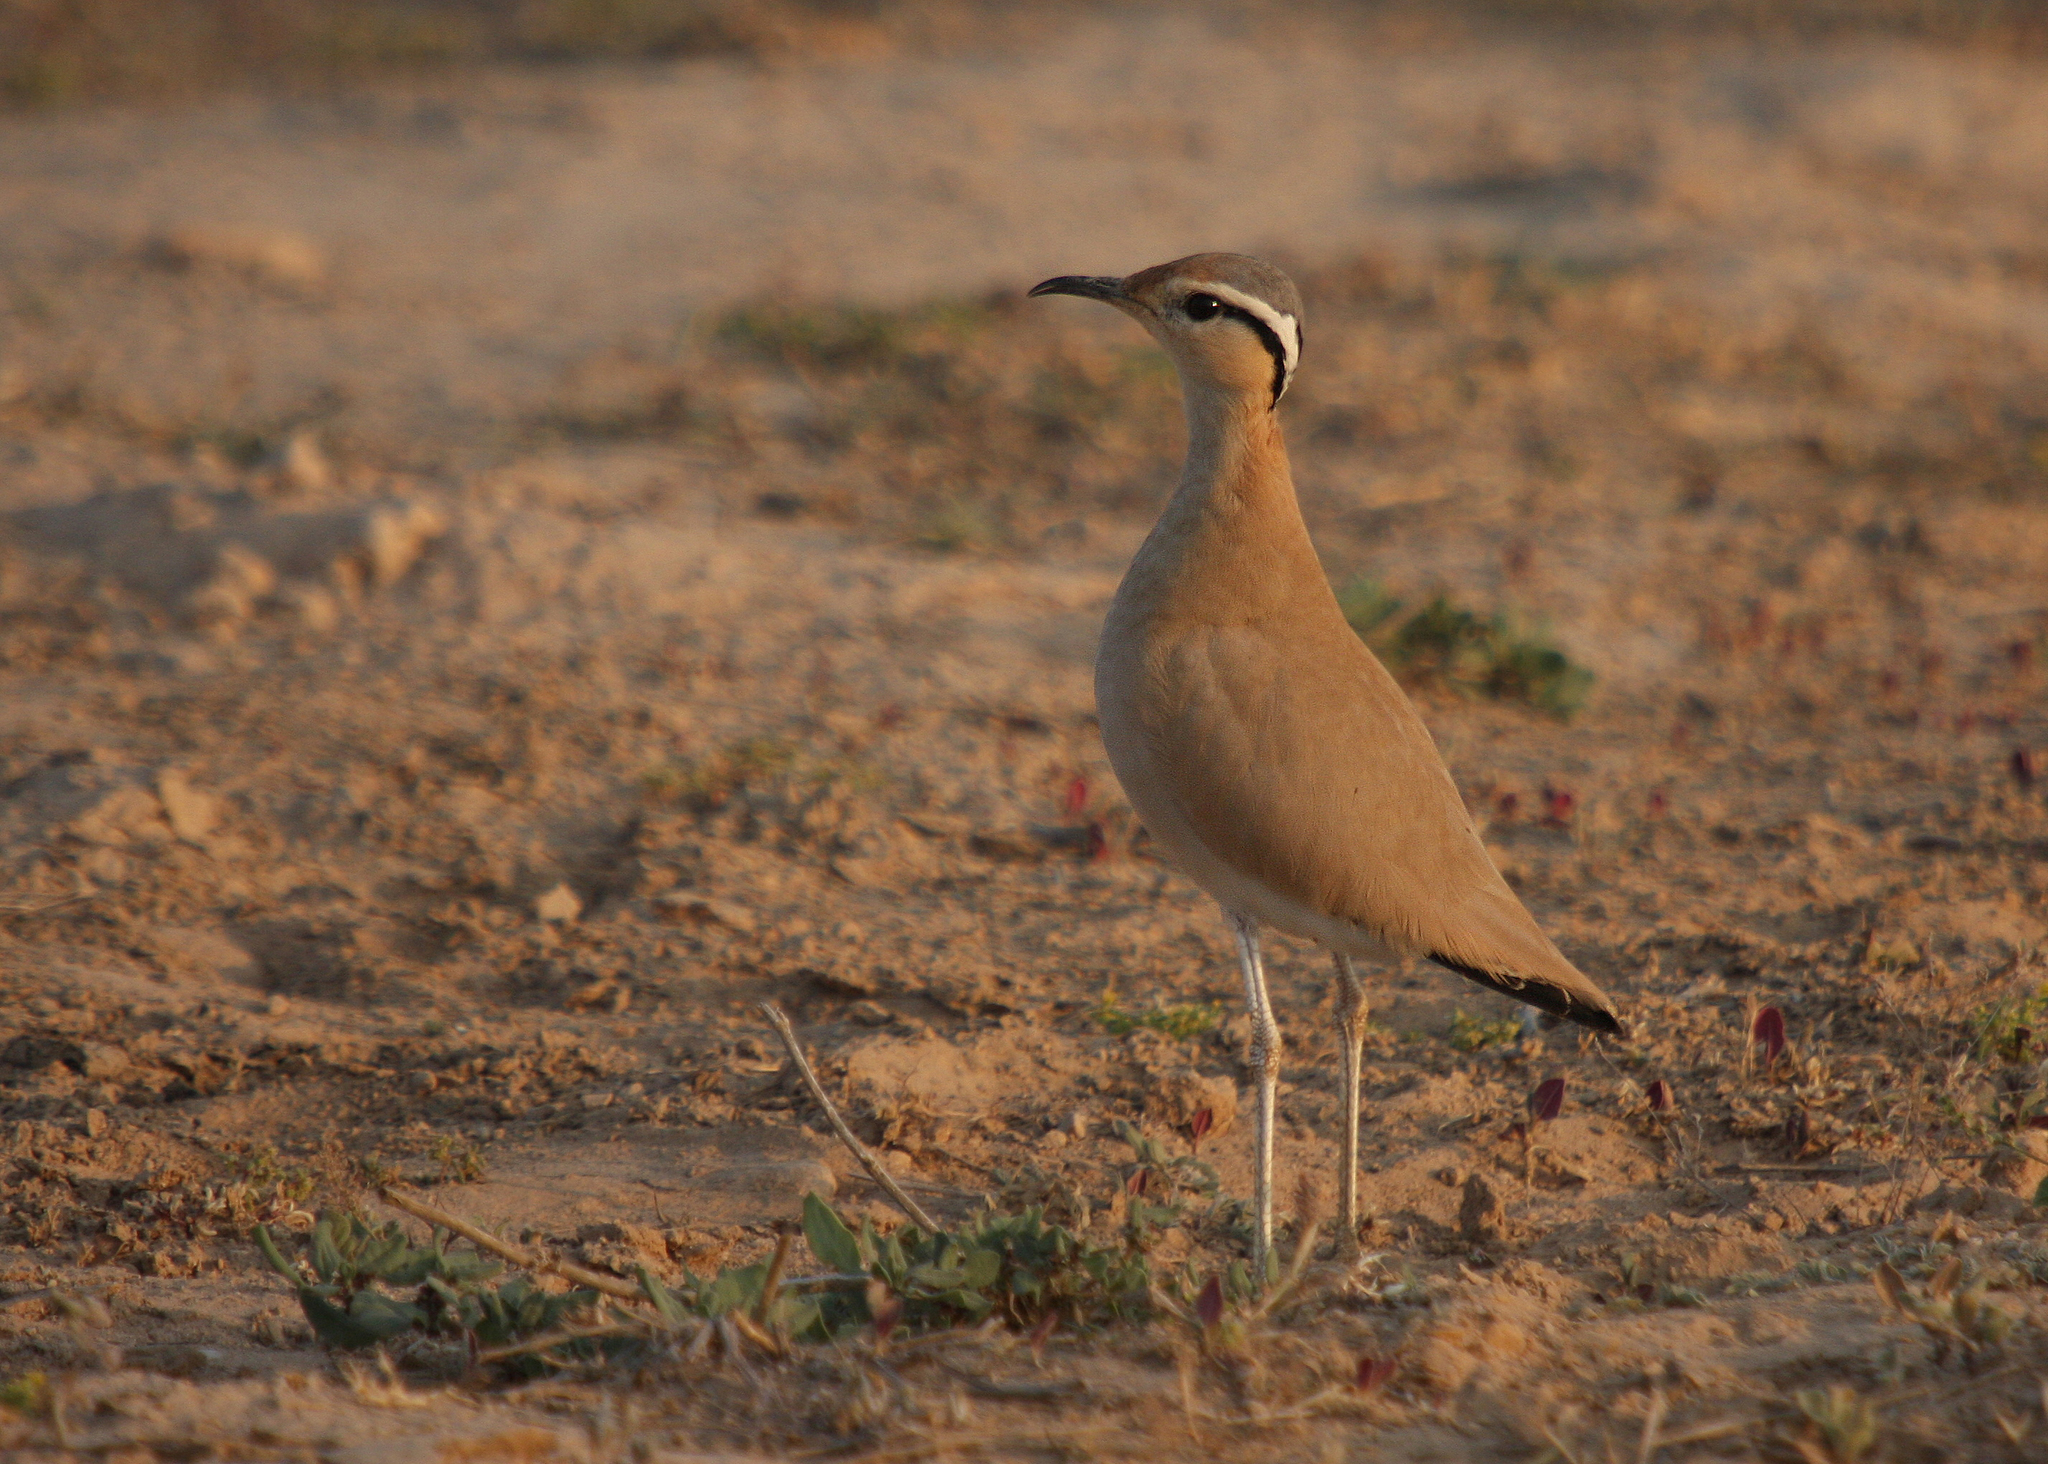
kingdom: Animalia
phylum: Chordata
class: Aves
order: Charadriiformes
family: Glareolidae
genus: Cursorius
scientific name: Cursorius cursor
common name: Cream-colored courser
